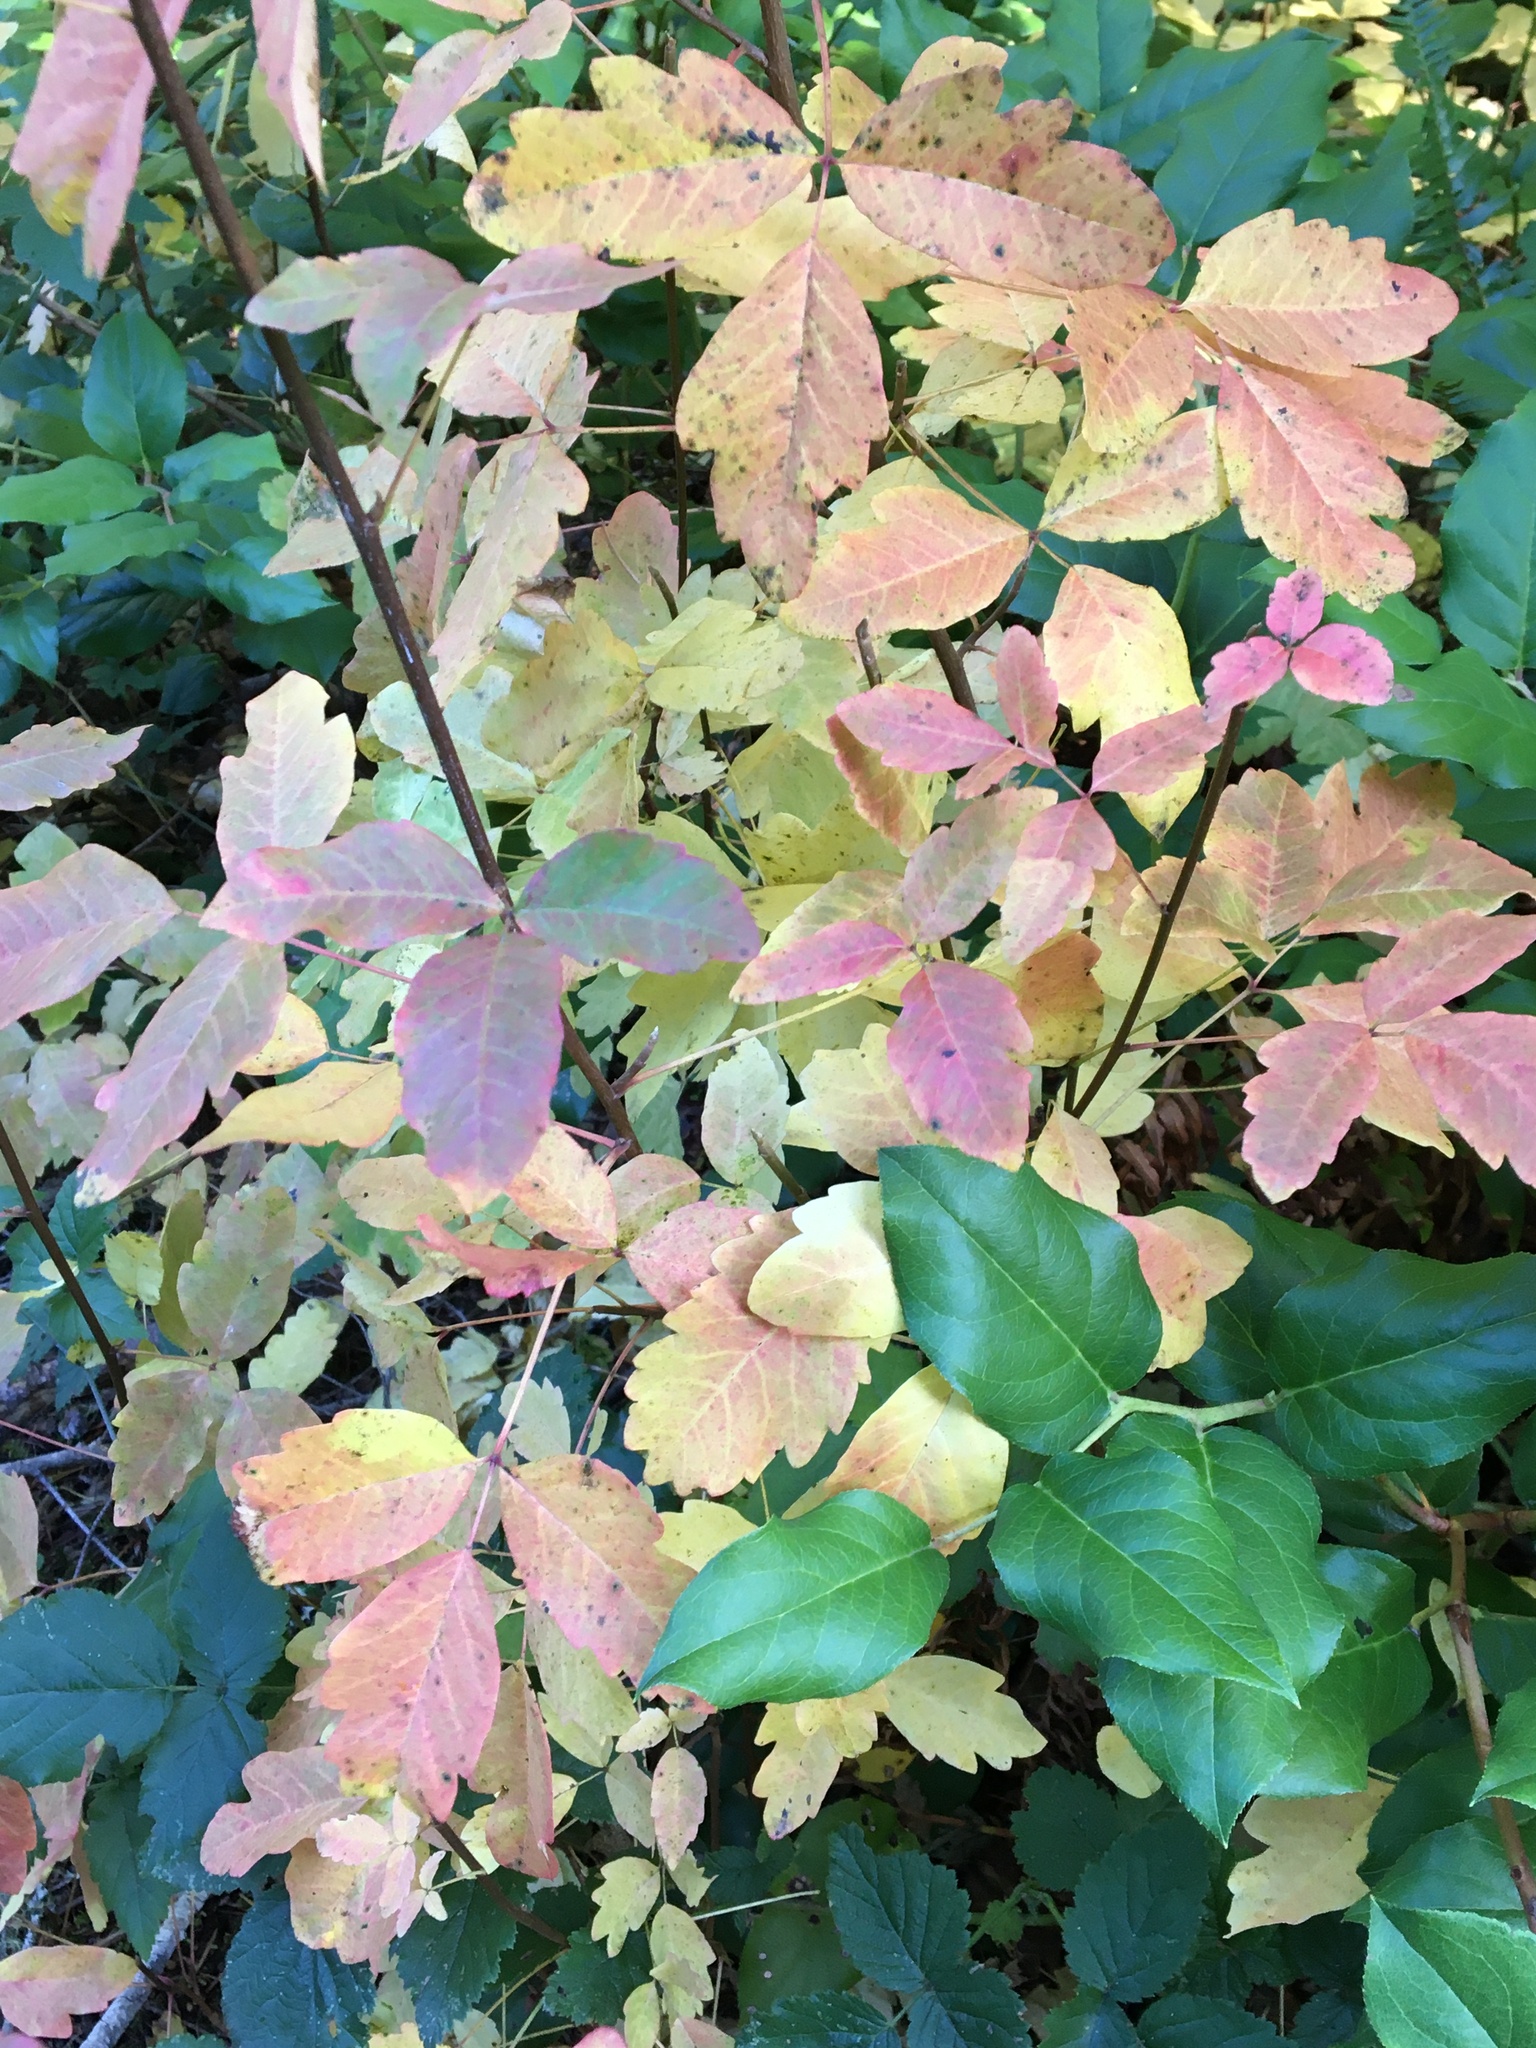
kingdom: Plantae
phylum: Tracheophyta
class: Magnoliopsida
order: Sapindales
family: Anacardiaceae
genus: Toxicodendron
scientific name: Toxicodendron diversilobum
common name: Pacific poison-oak
